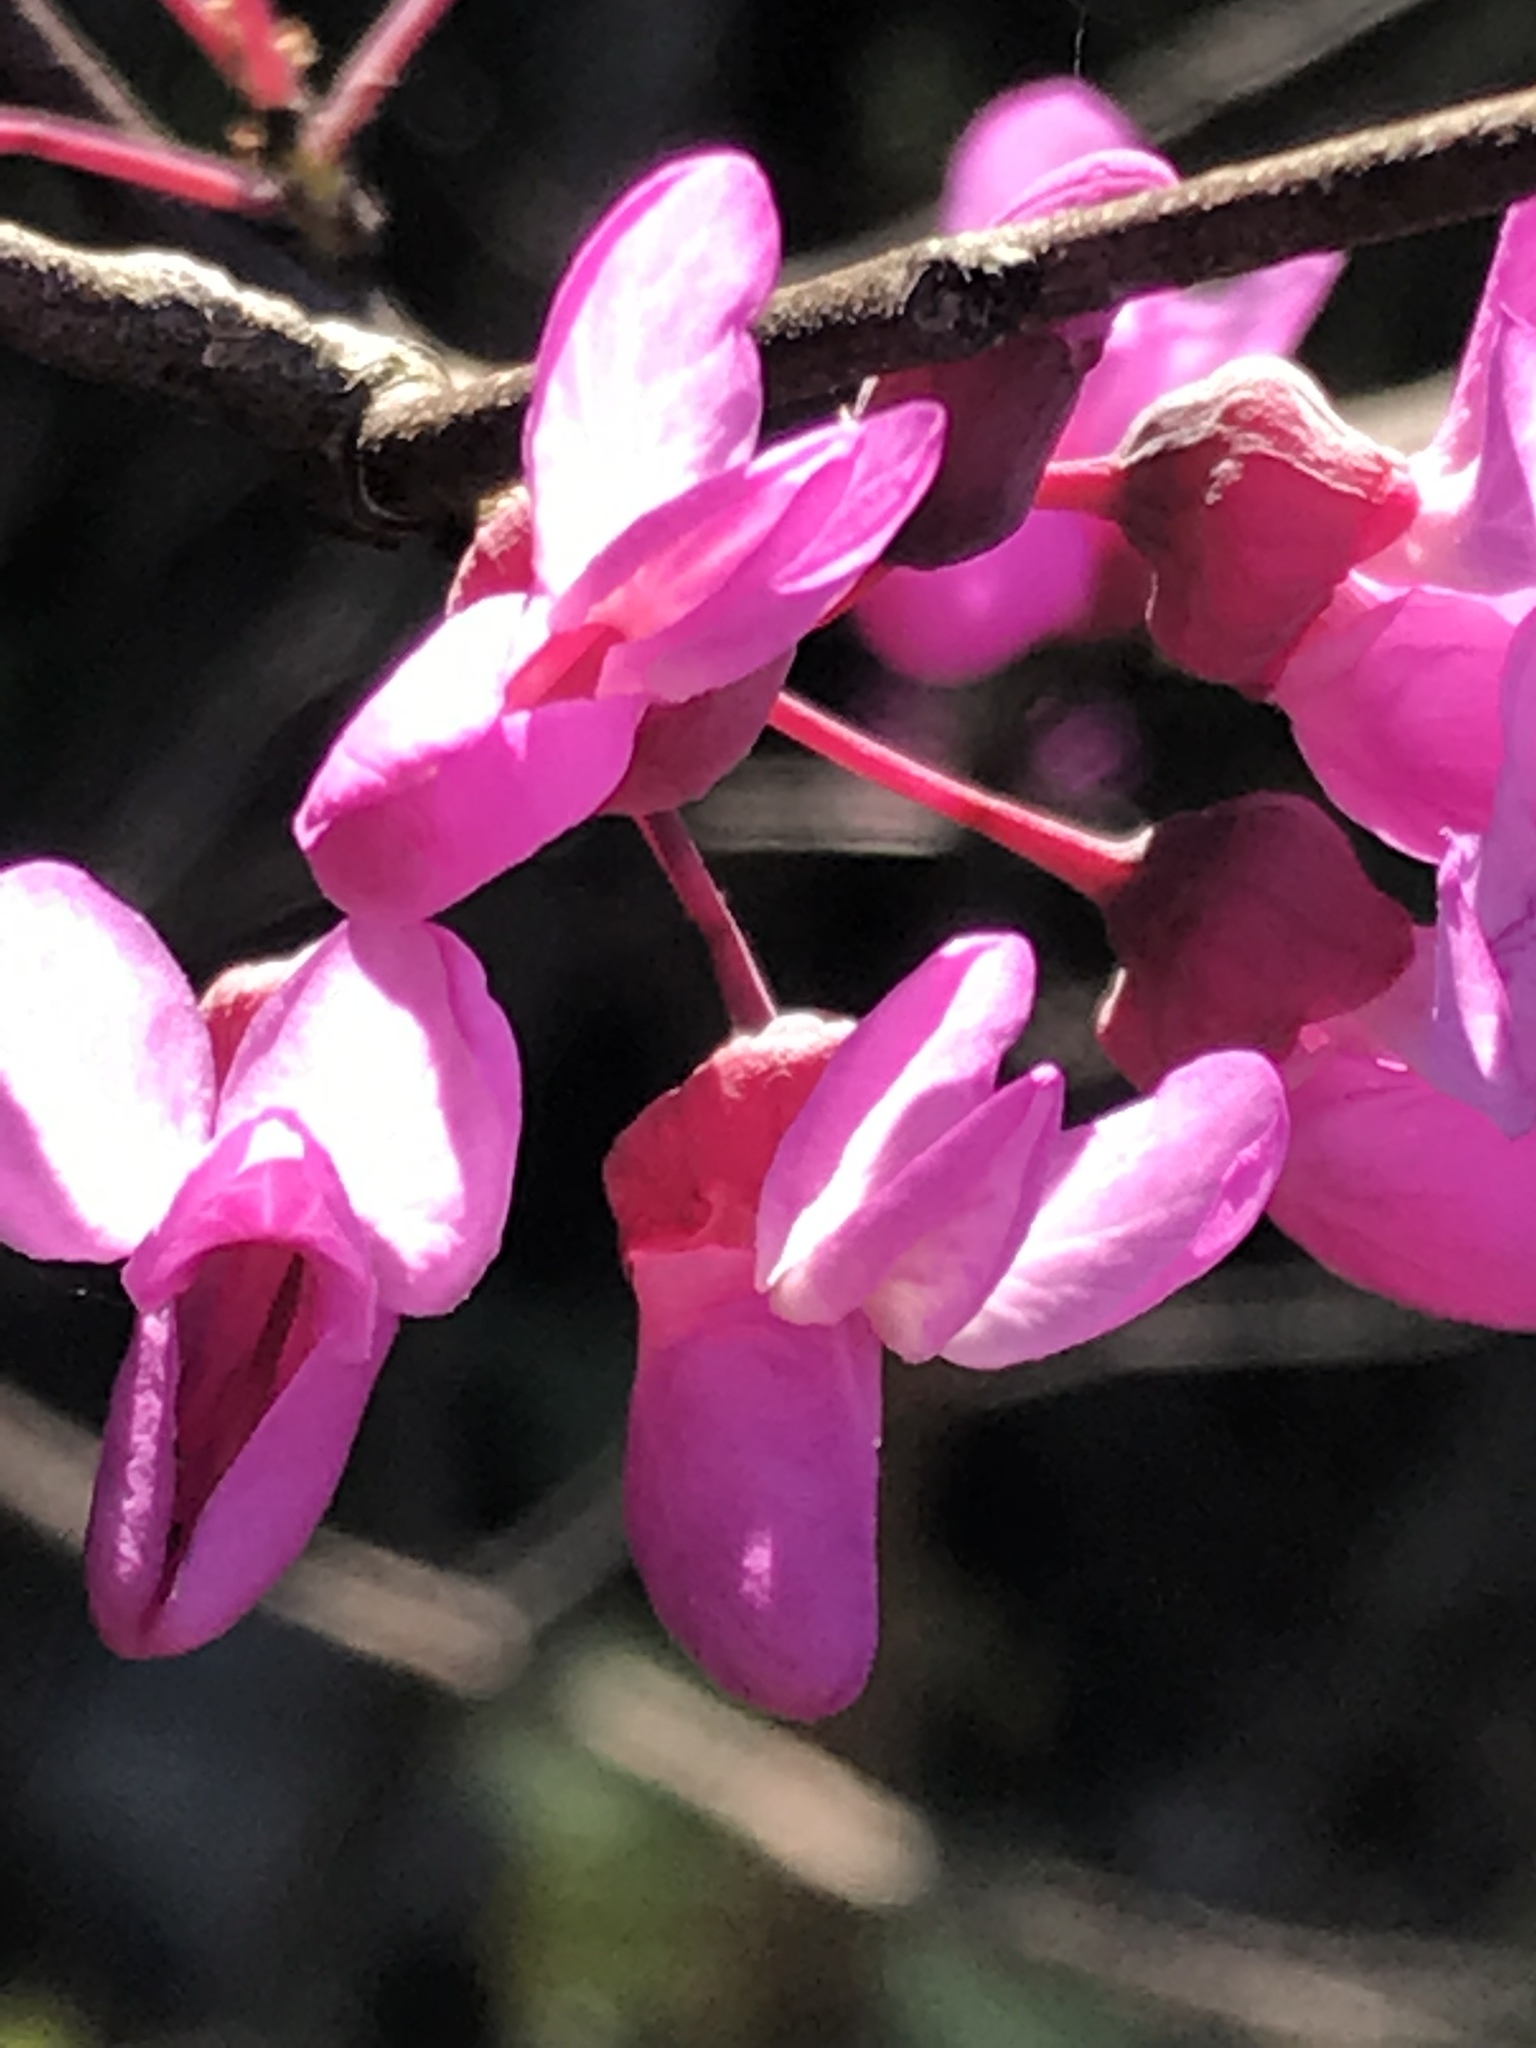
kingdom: Plantae
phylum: Tracheophyta
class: Magnoliopsida
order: Fabales
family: Fabaceae
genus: Cercis
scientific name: Cercis canadensis
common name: Eastern redbud
